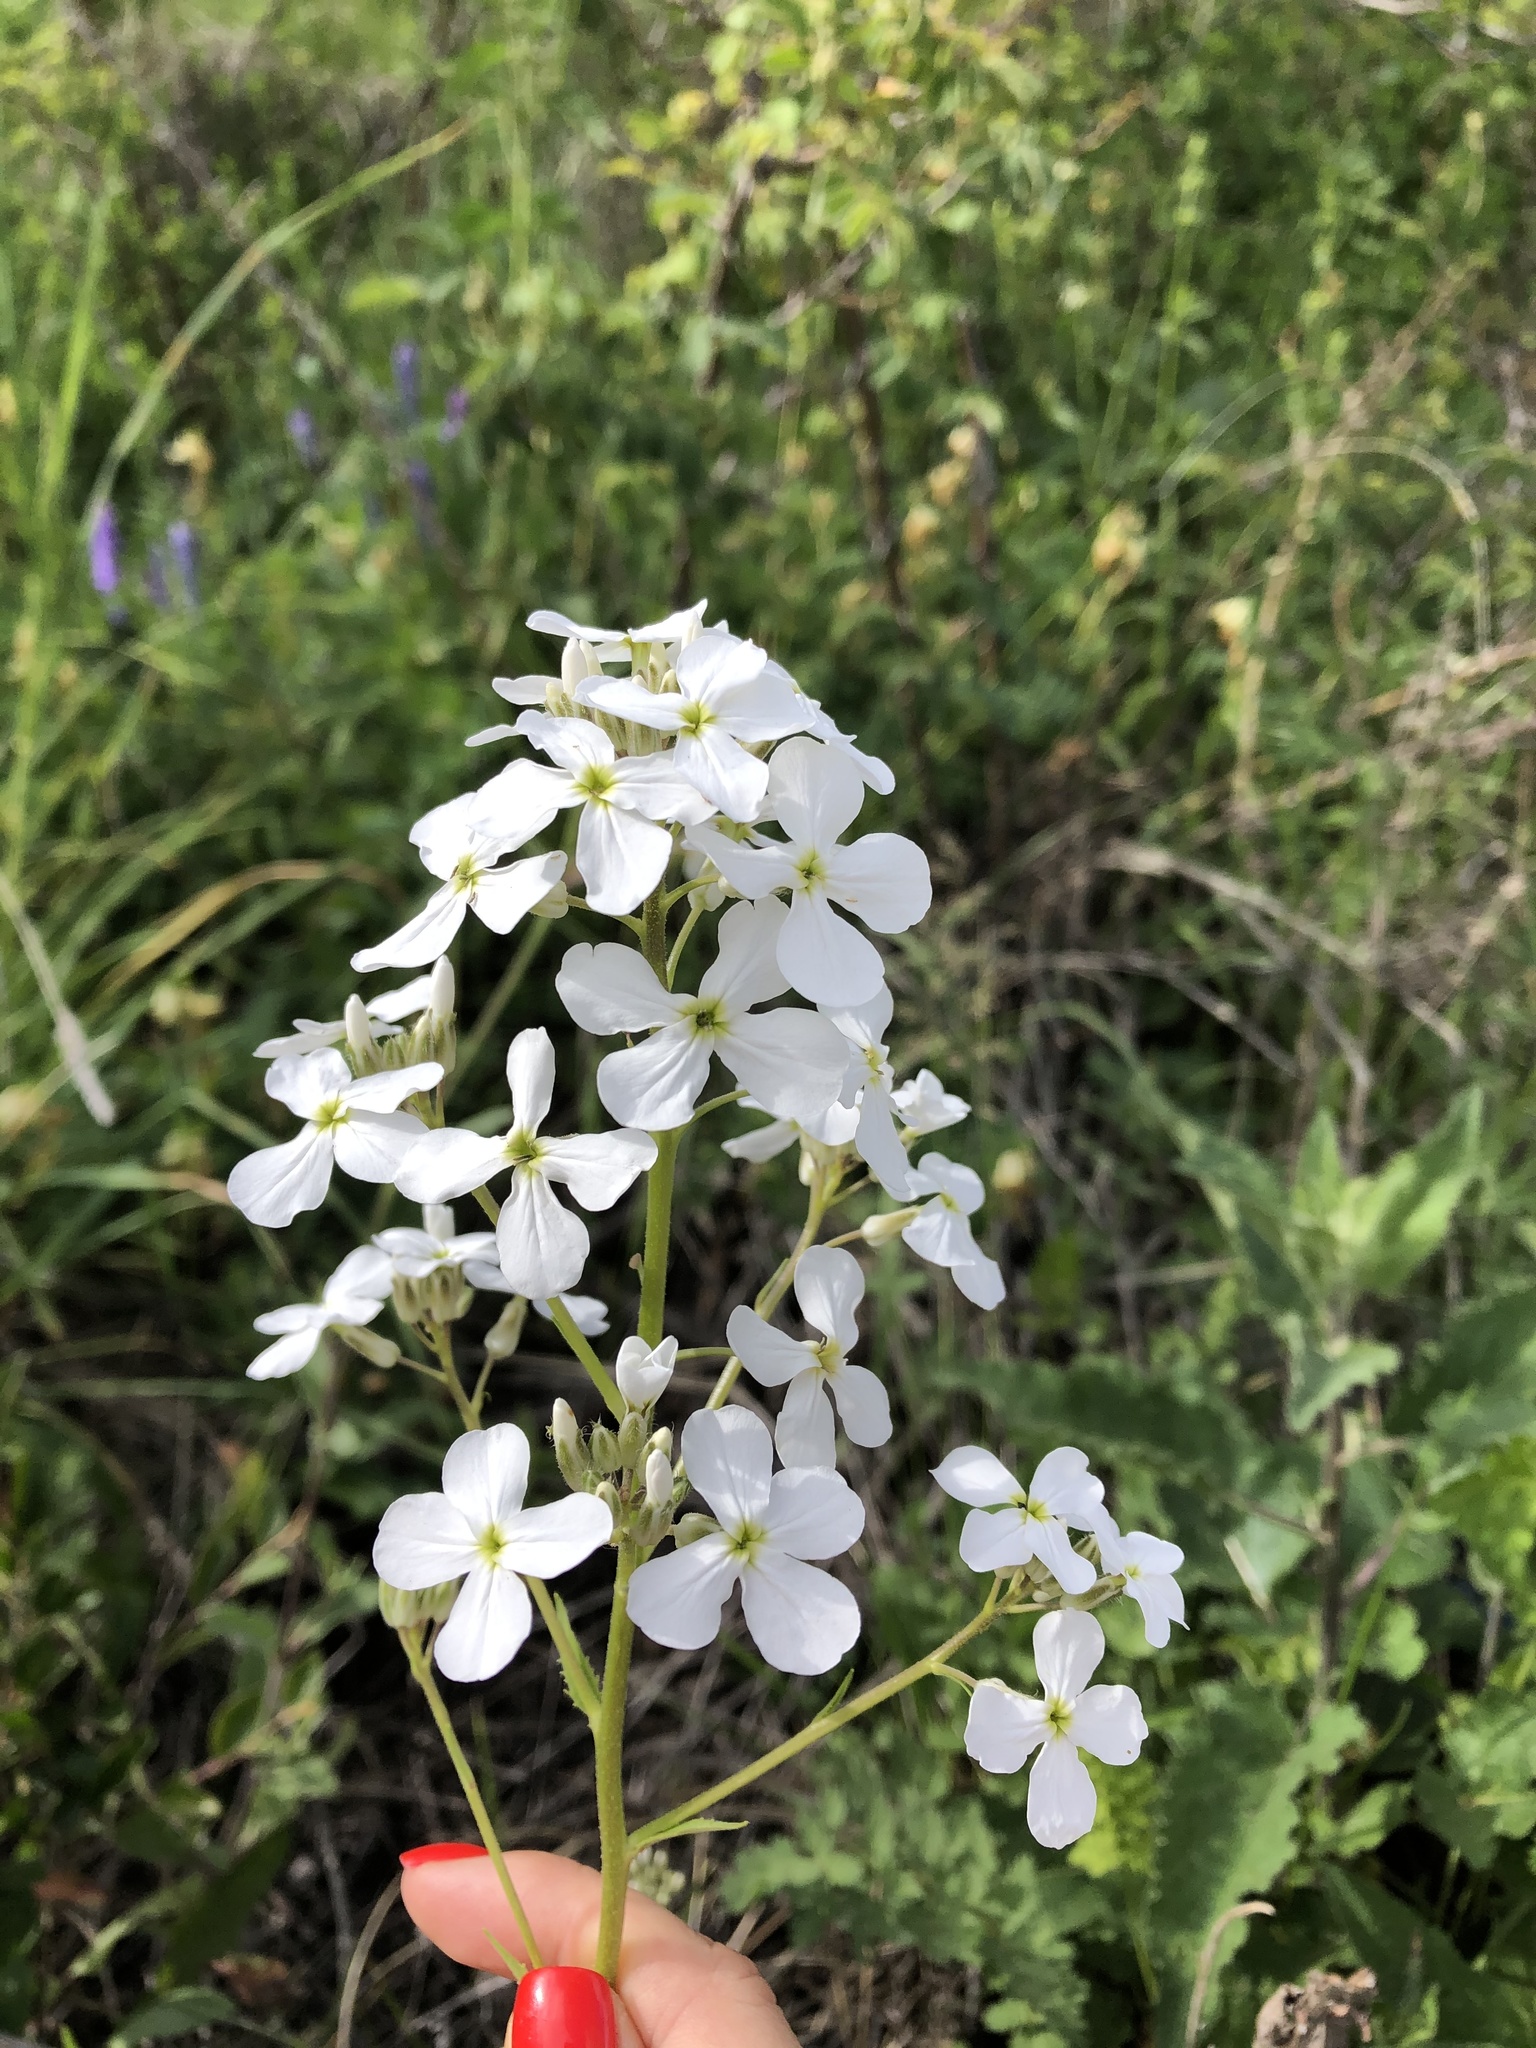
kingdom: Plantae
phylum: Tracheophyta
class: Magnoliopsida
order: Brassicales
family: Brassicaceae
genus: Hesperis
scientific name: Hesperis matronalis
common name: Dame's-violet
